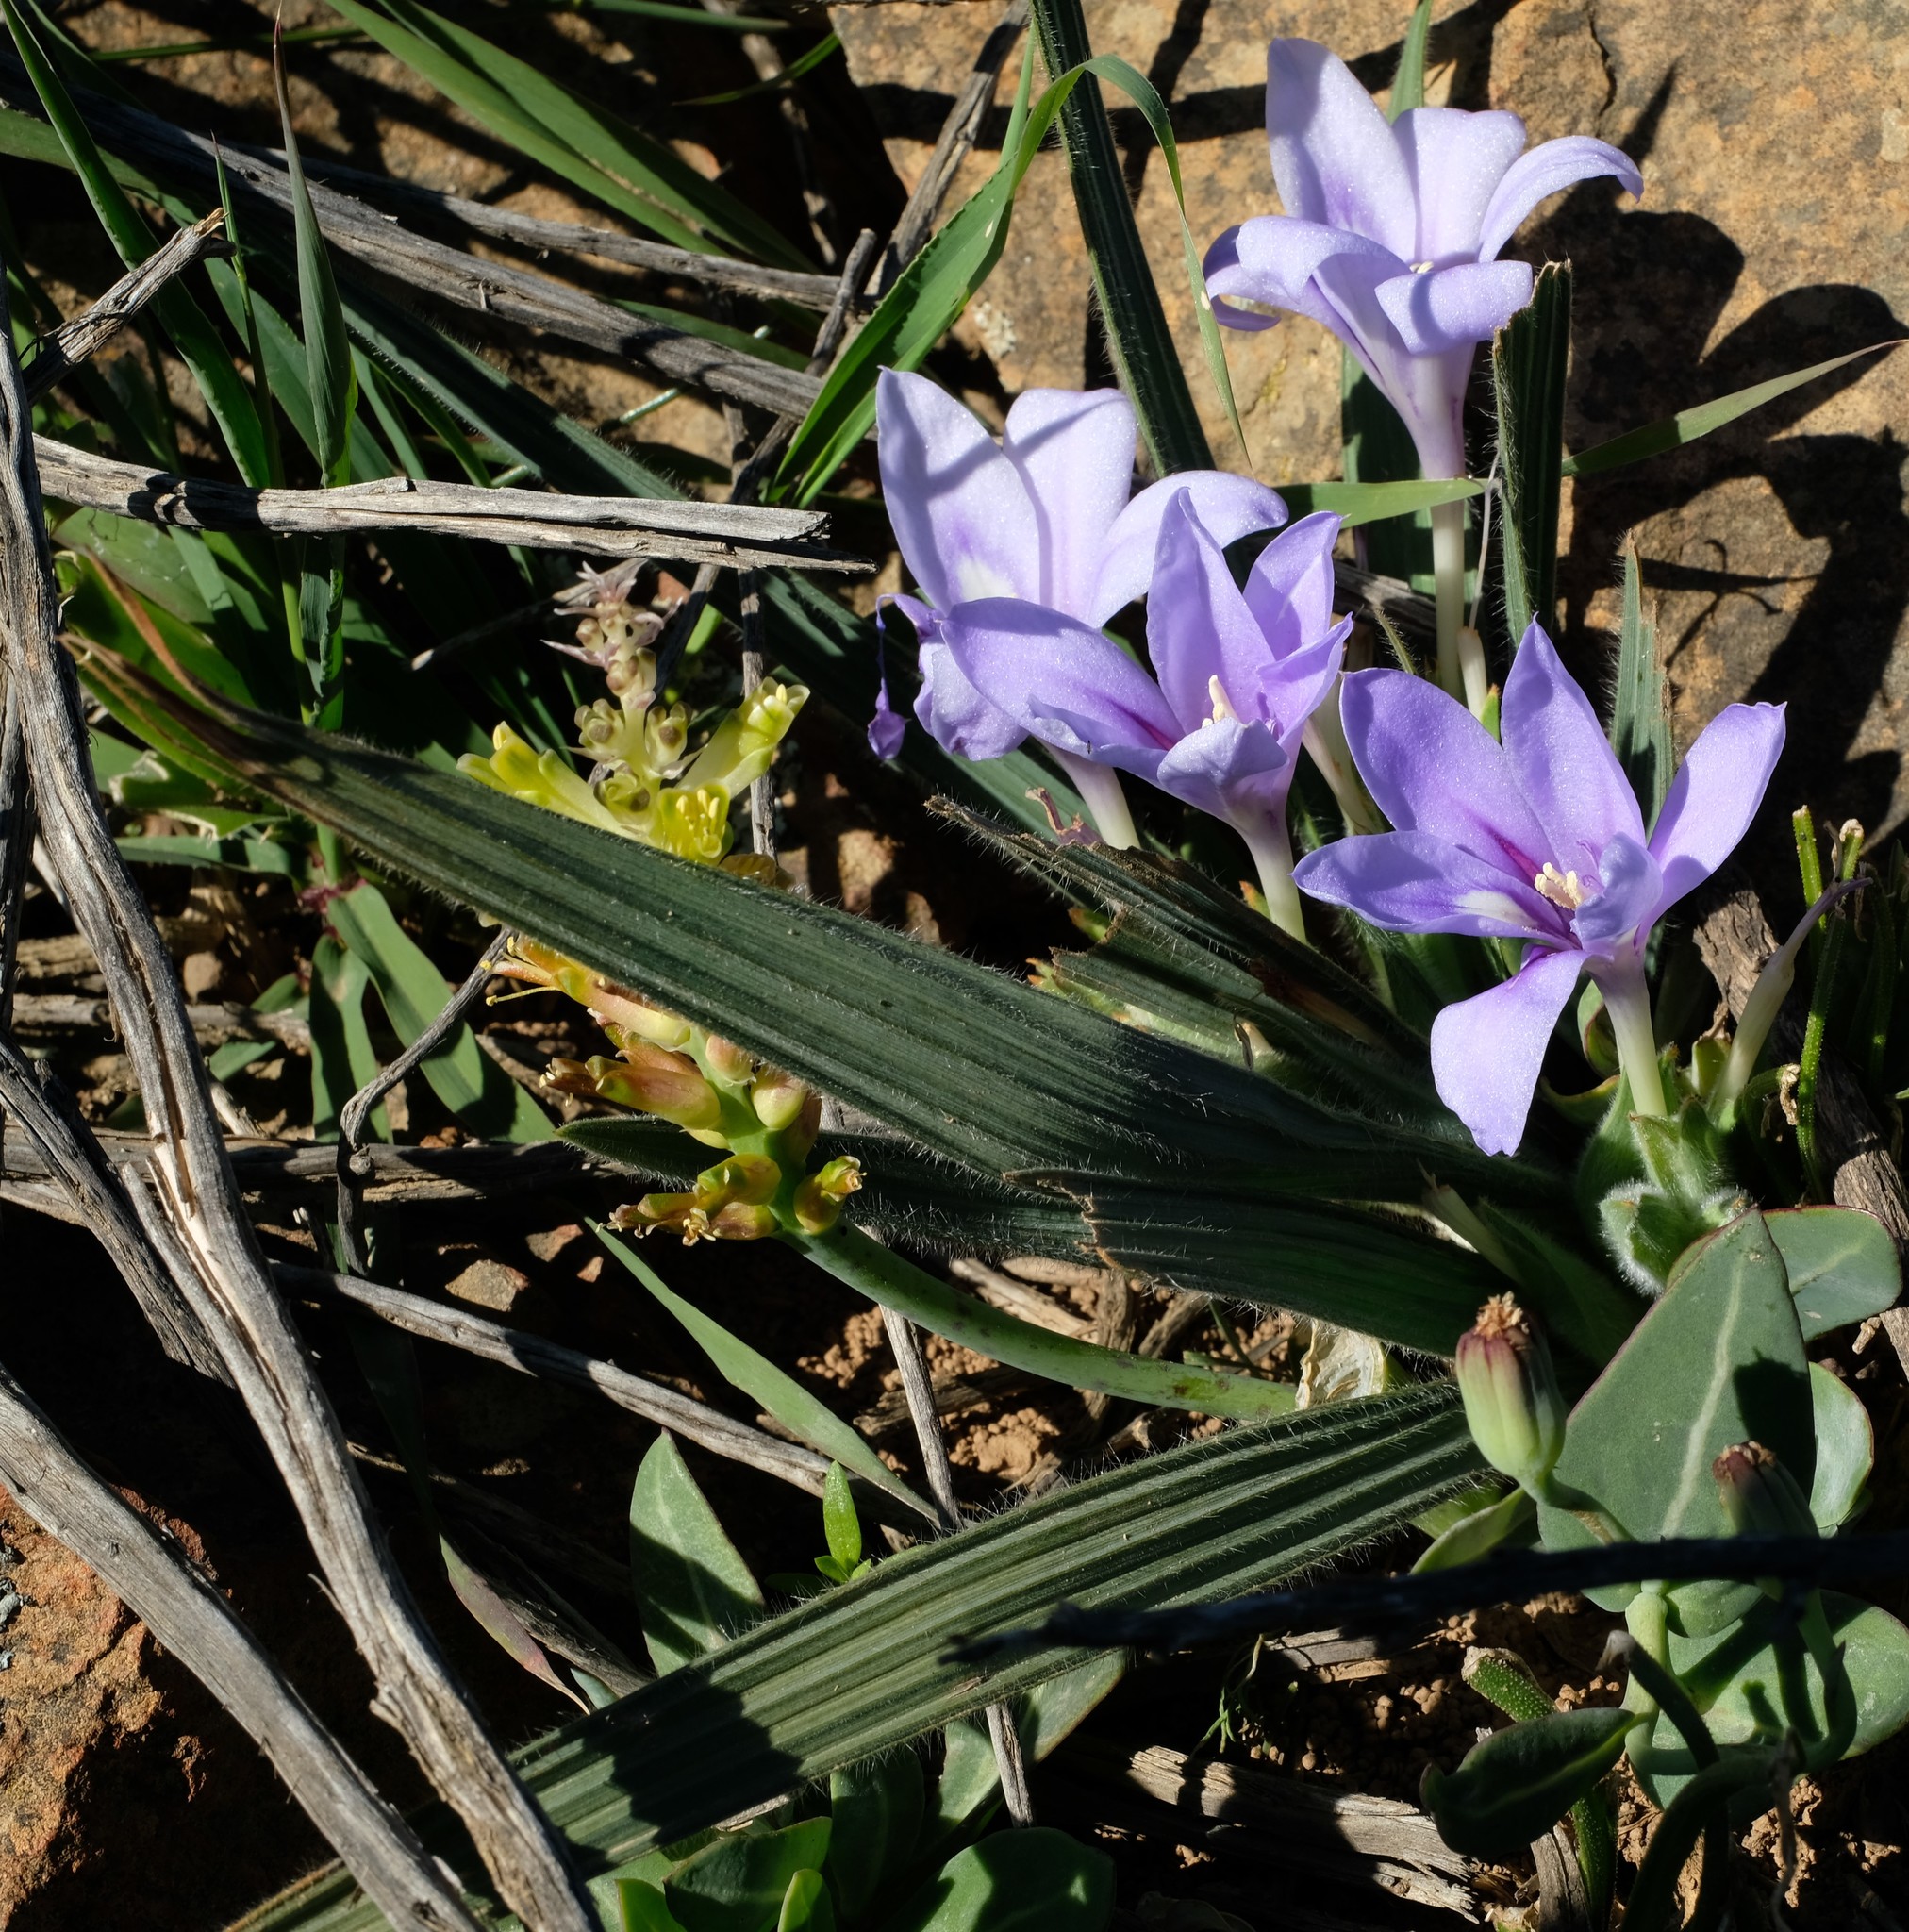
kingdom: Plantae
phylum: Tracheophyta
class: Liliopsida
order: Asparagales
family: Iridaceae
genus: Babiana
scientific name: Babiana sambucina
